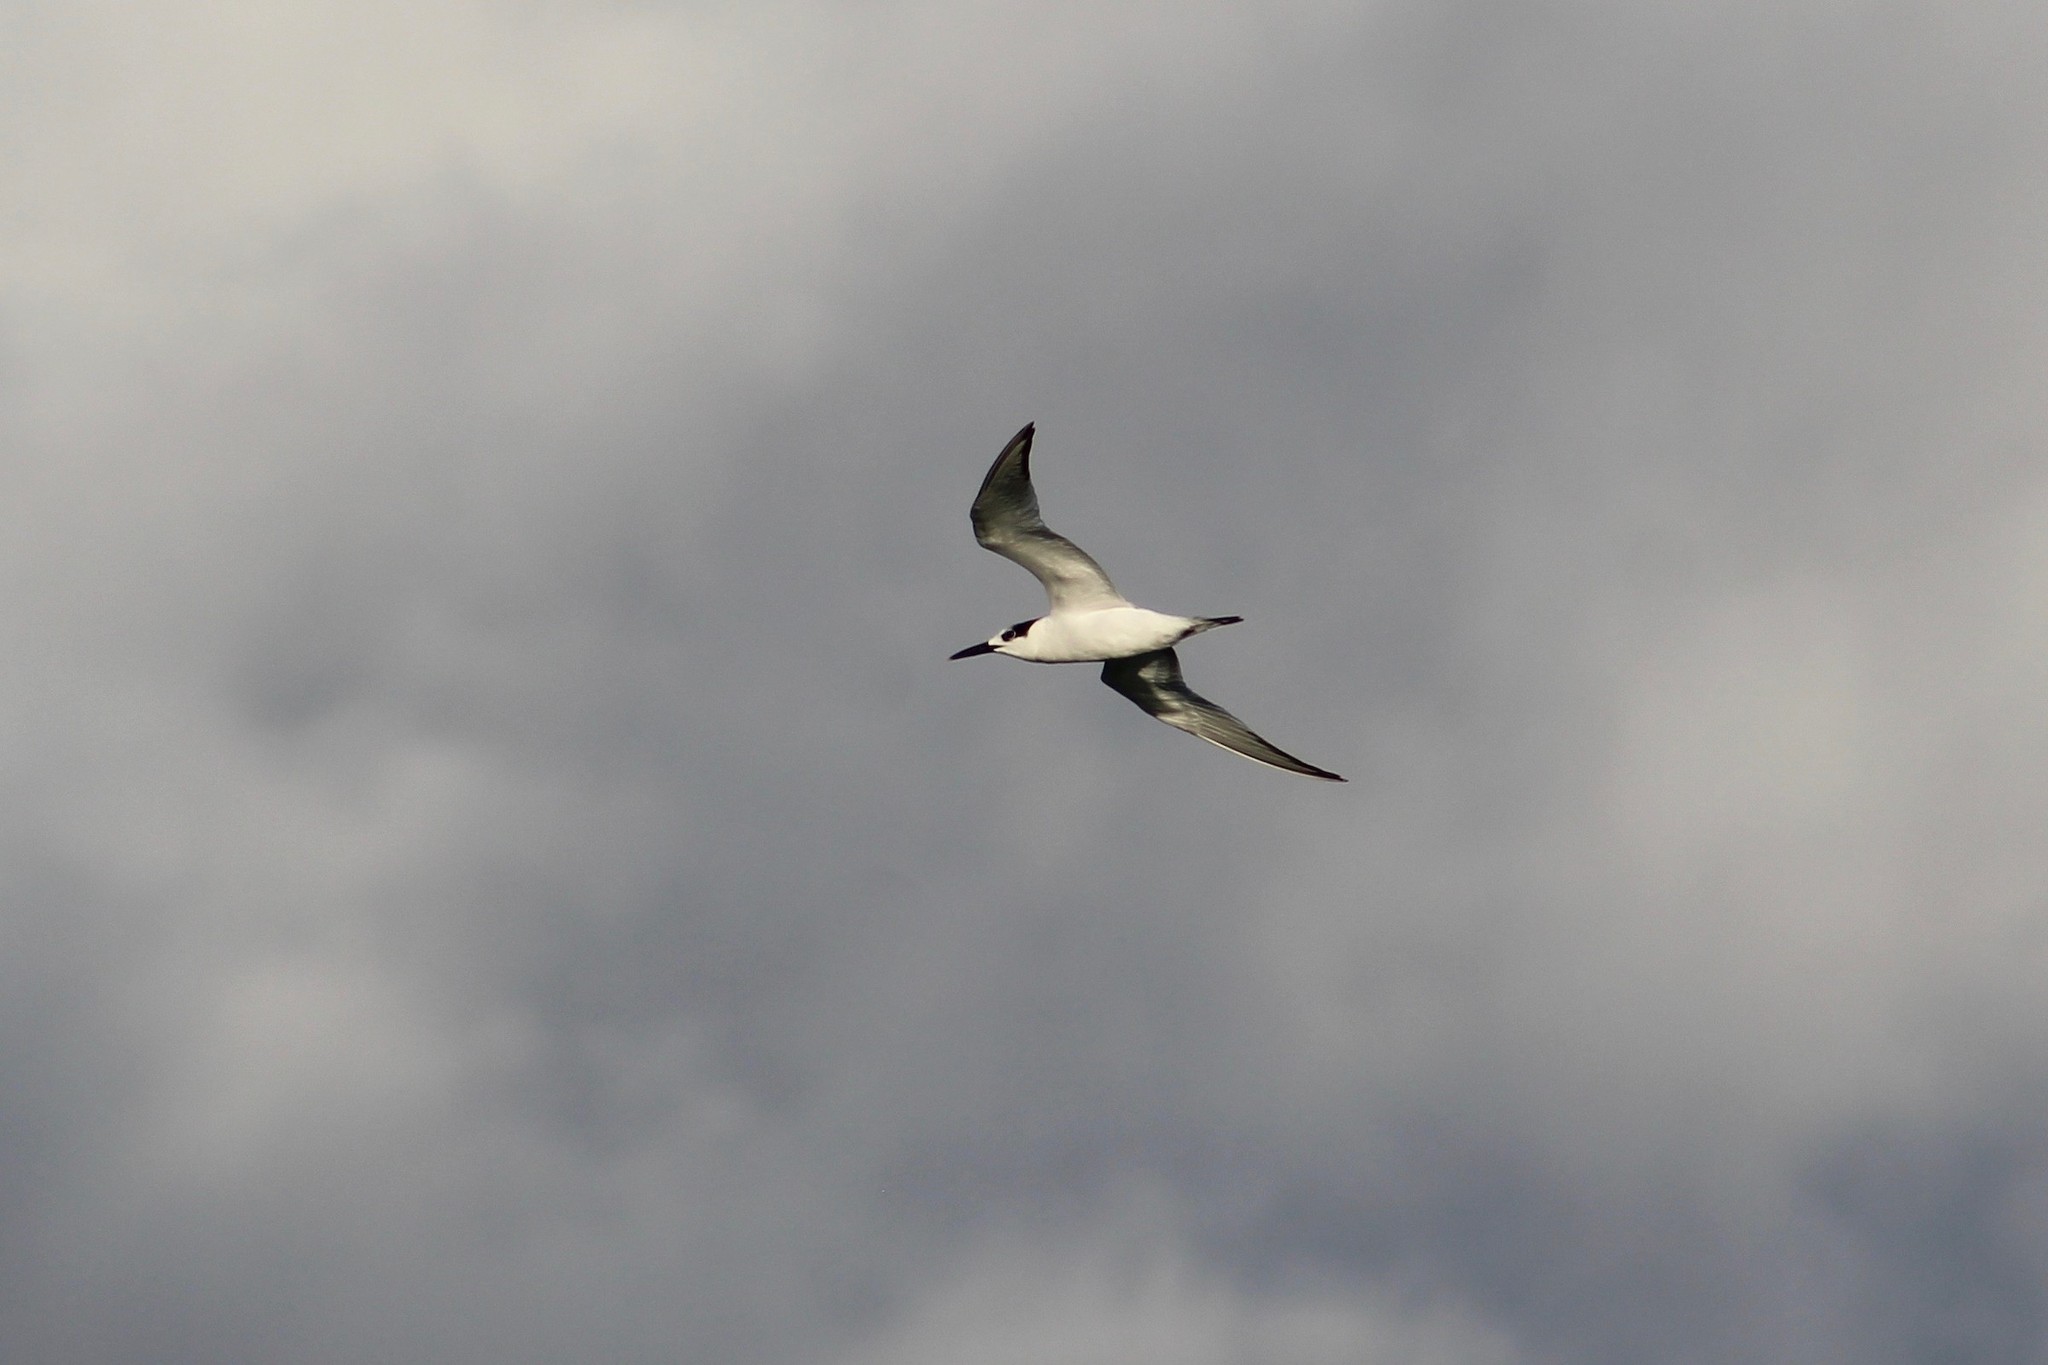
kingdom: Animalia
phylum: Chordata
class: Aves
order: Charadriiformes
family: Laridae
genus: Thalasseus
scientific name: Thalasseus sandvicensis
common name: Sandwich tern
